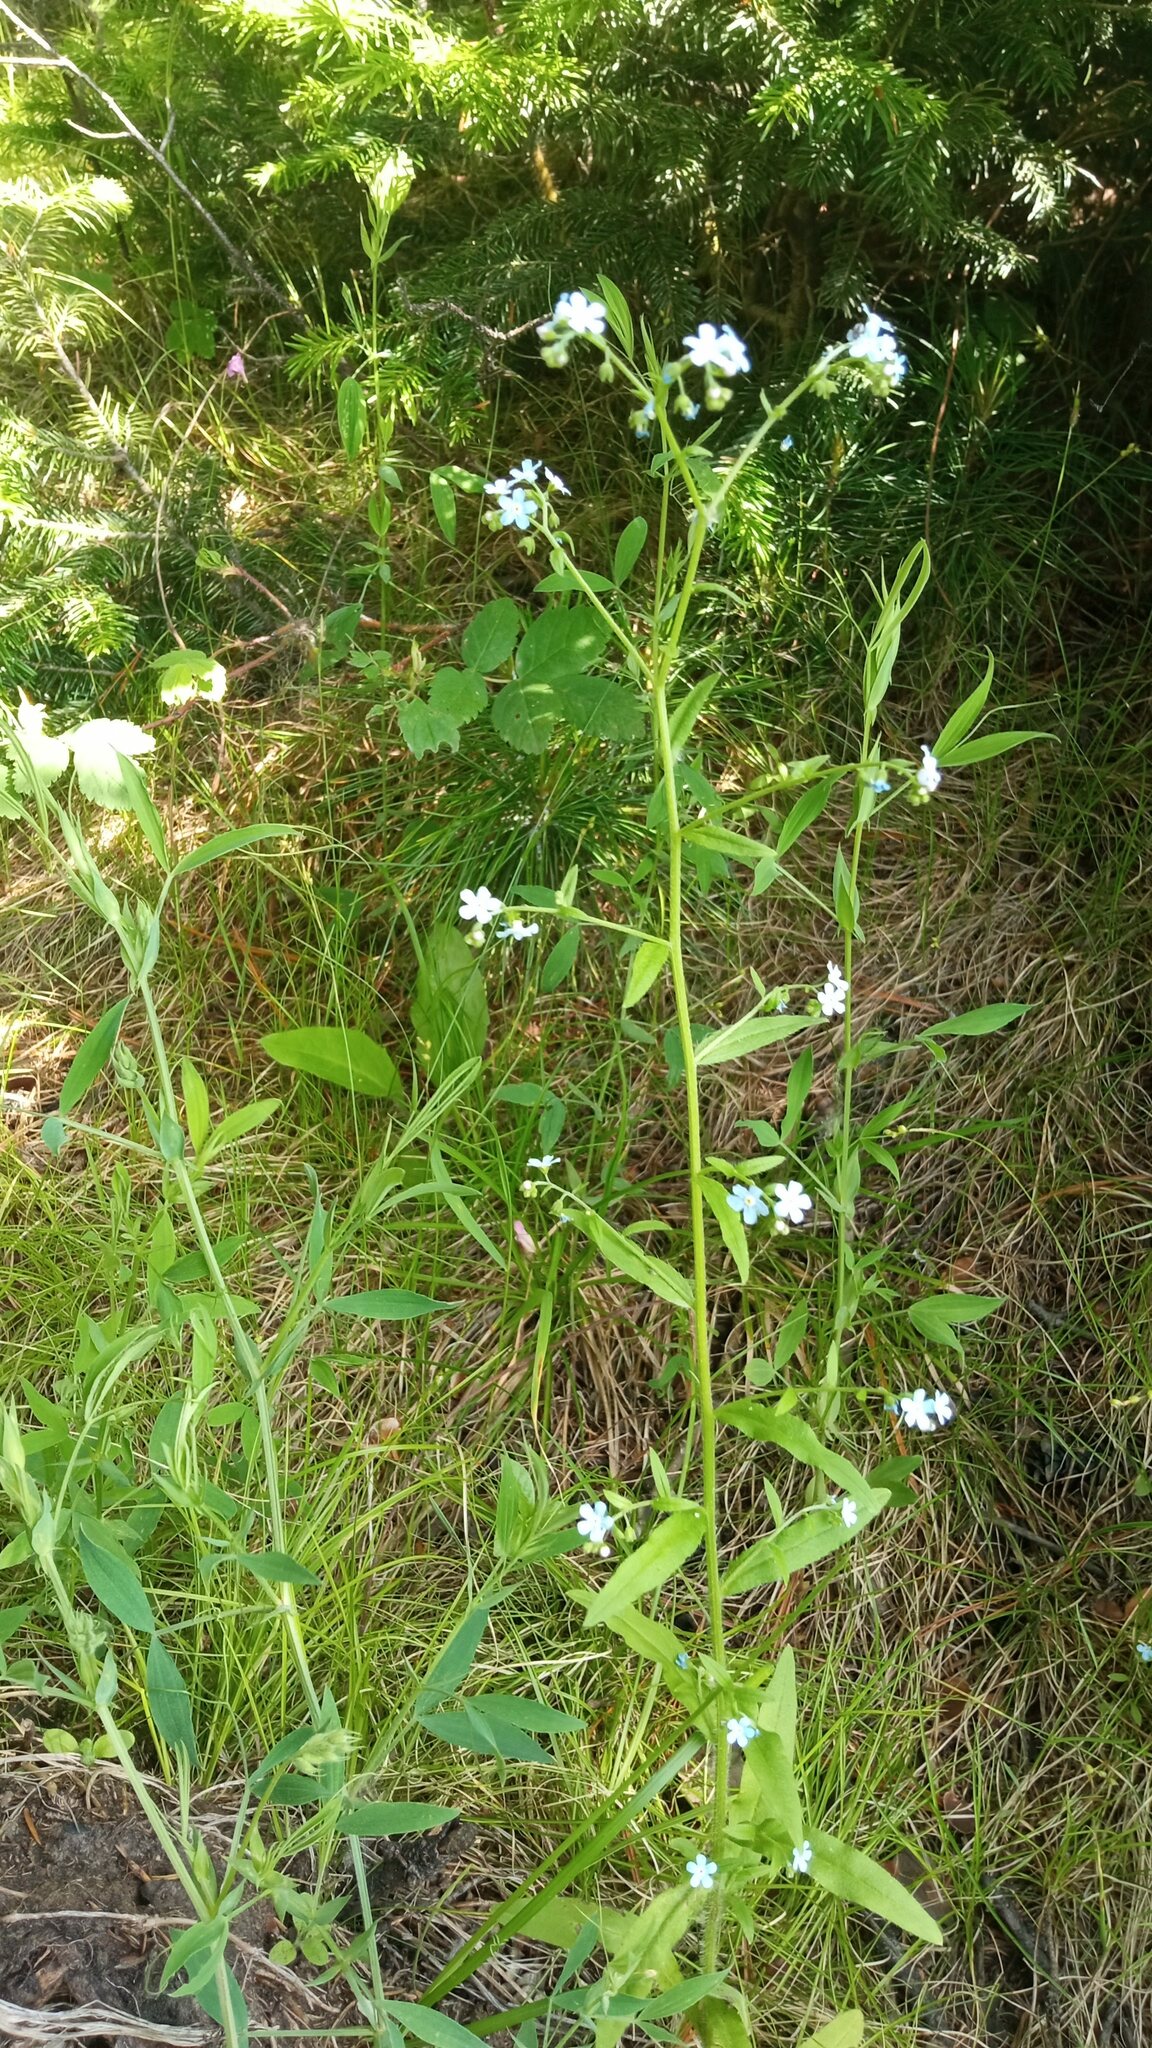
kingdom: Plantae
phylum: Tracheophyta
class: Magnoliopsida
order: Boraginales
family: Boraginaceae
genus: Hackelia
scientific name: Hackelia deflexa
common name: Nodding stickseed
